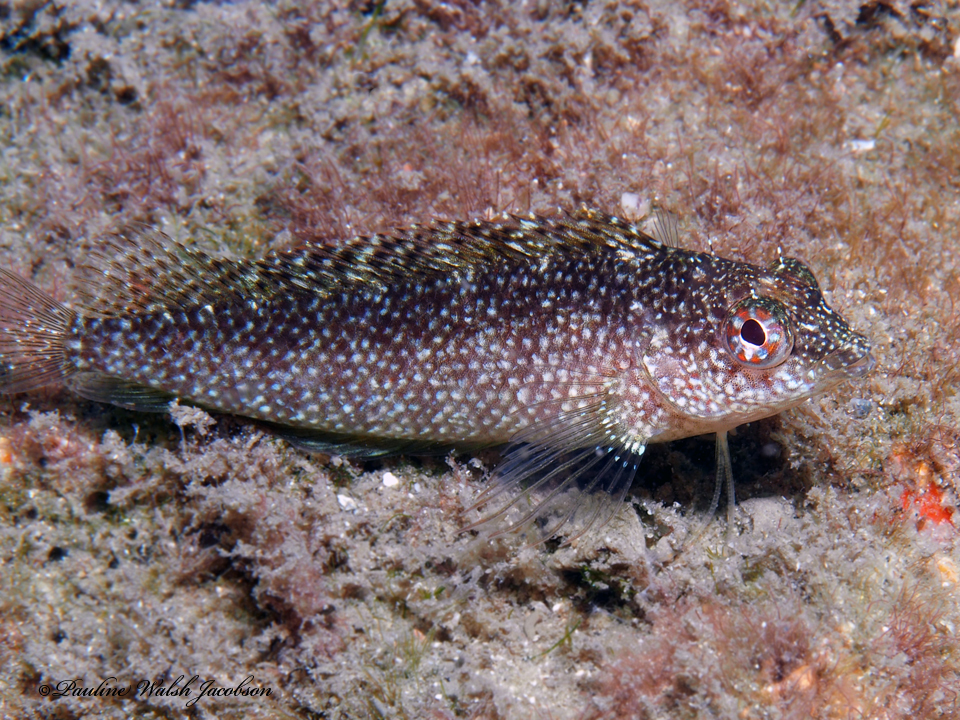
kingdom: Animalia
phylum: Chordata
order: Perciformes
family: Labrisomidae
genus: Malacoctenus
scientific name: Malacoctenus macropus
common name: Rosy blenny
